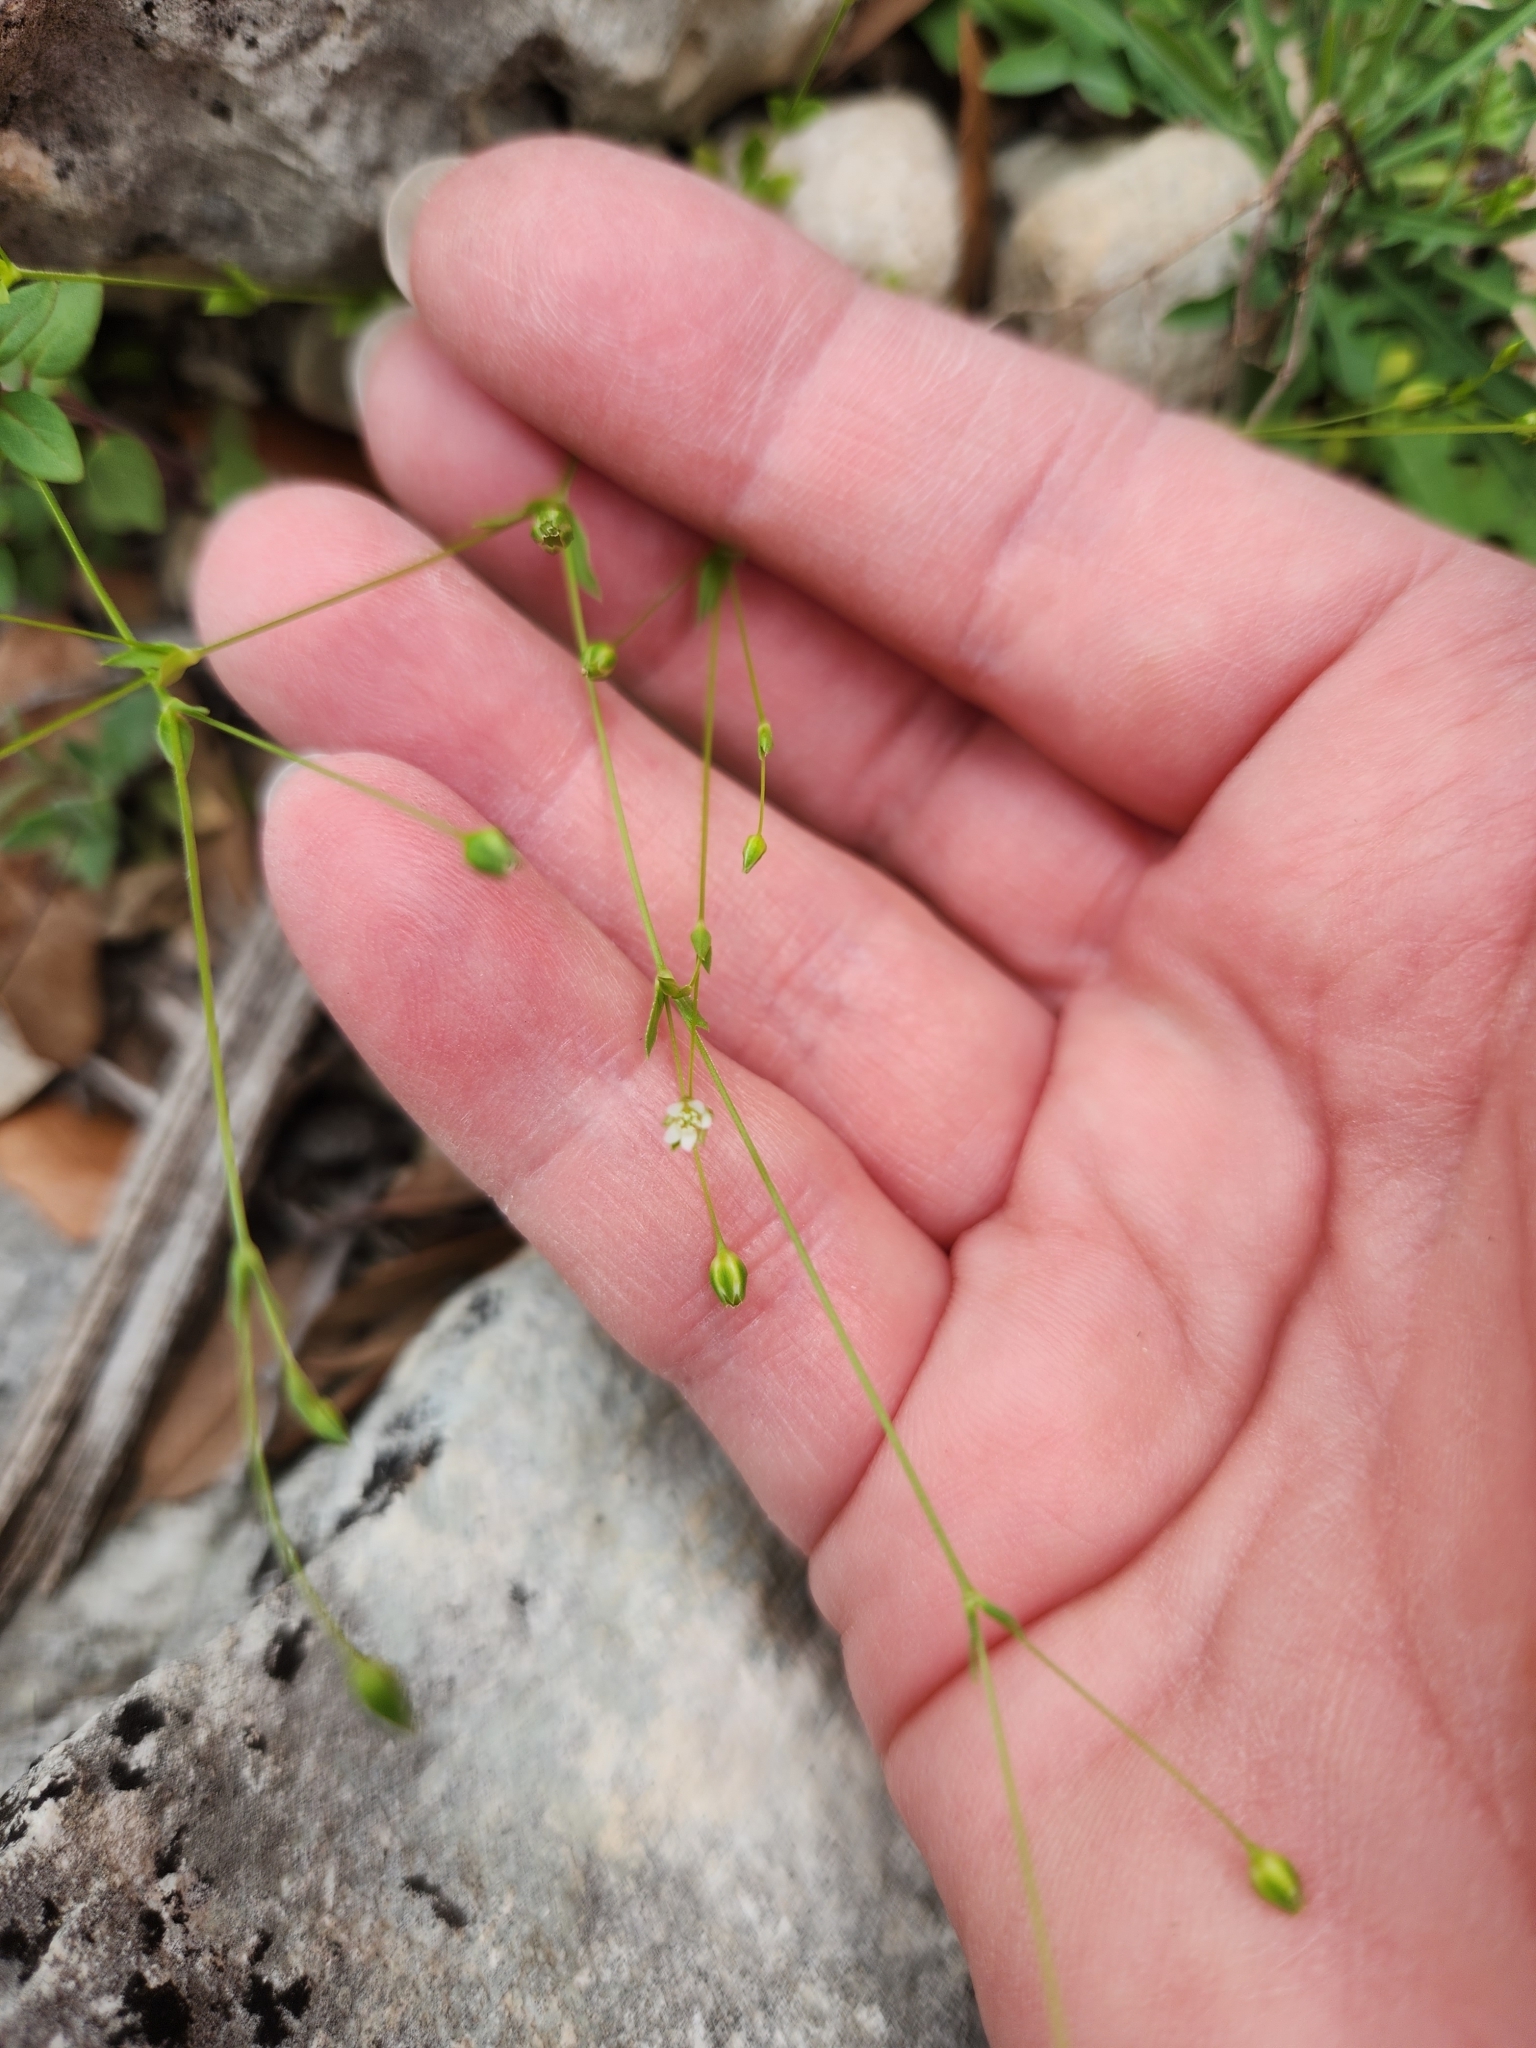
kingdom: Plantae
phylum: Tracheophyta
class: Magnoliopsida
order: Caryophyllales
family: Caryophyllaceae
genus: Arenaria
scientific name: Arenaria benthamii
